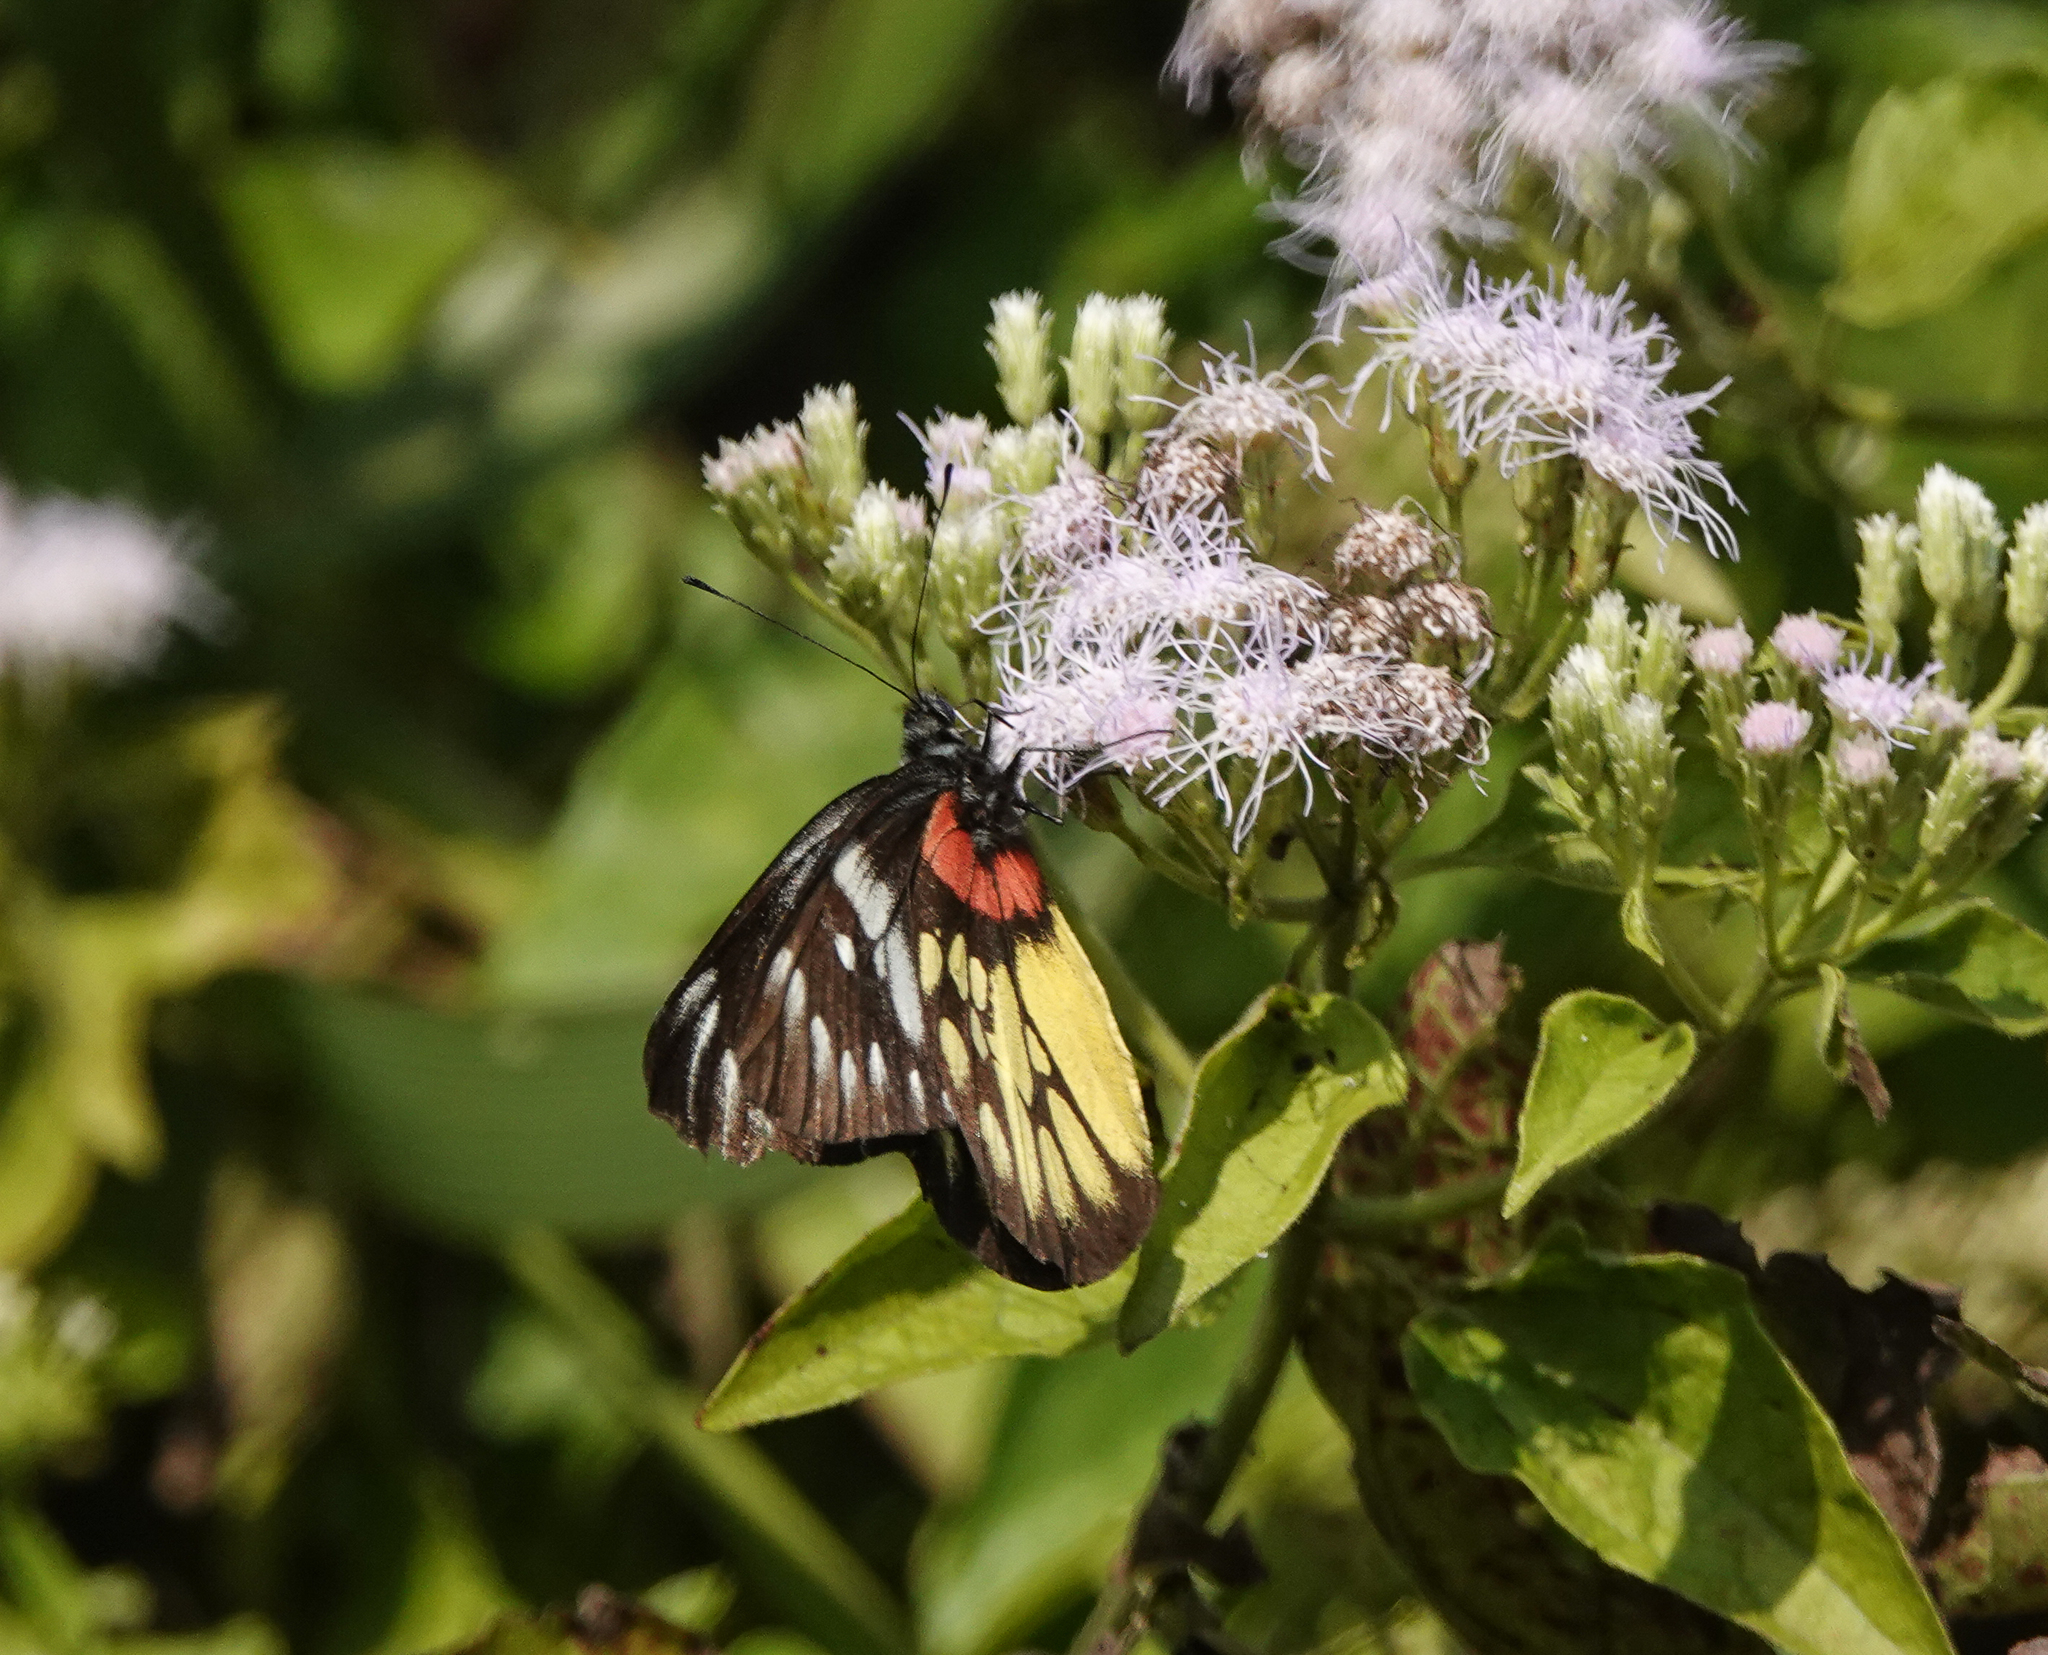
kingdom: Animalia
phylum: Arthropoda
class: Insecta
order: Lepidoptera
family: Pieridae
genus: Delias
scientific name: Delias pasithoe
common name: Red-base jezebel
